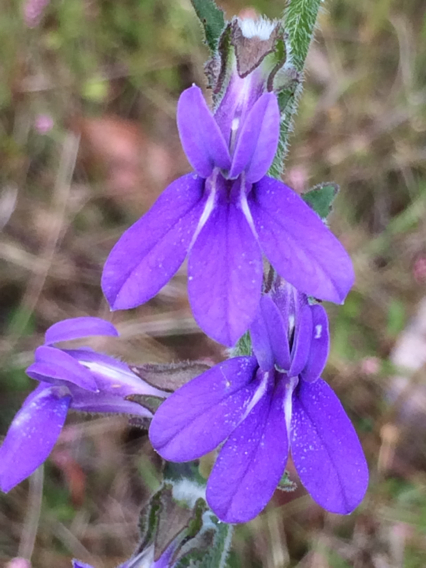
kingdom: Plantae
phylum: Tracheophyta
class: Magnoliopsida
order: Asterales
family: Campanulaceae
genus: Lobelia
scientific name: Lobelia puberula
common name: Purple dewdrop
